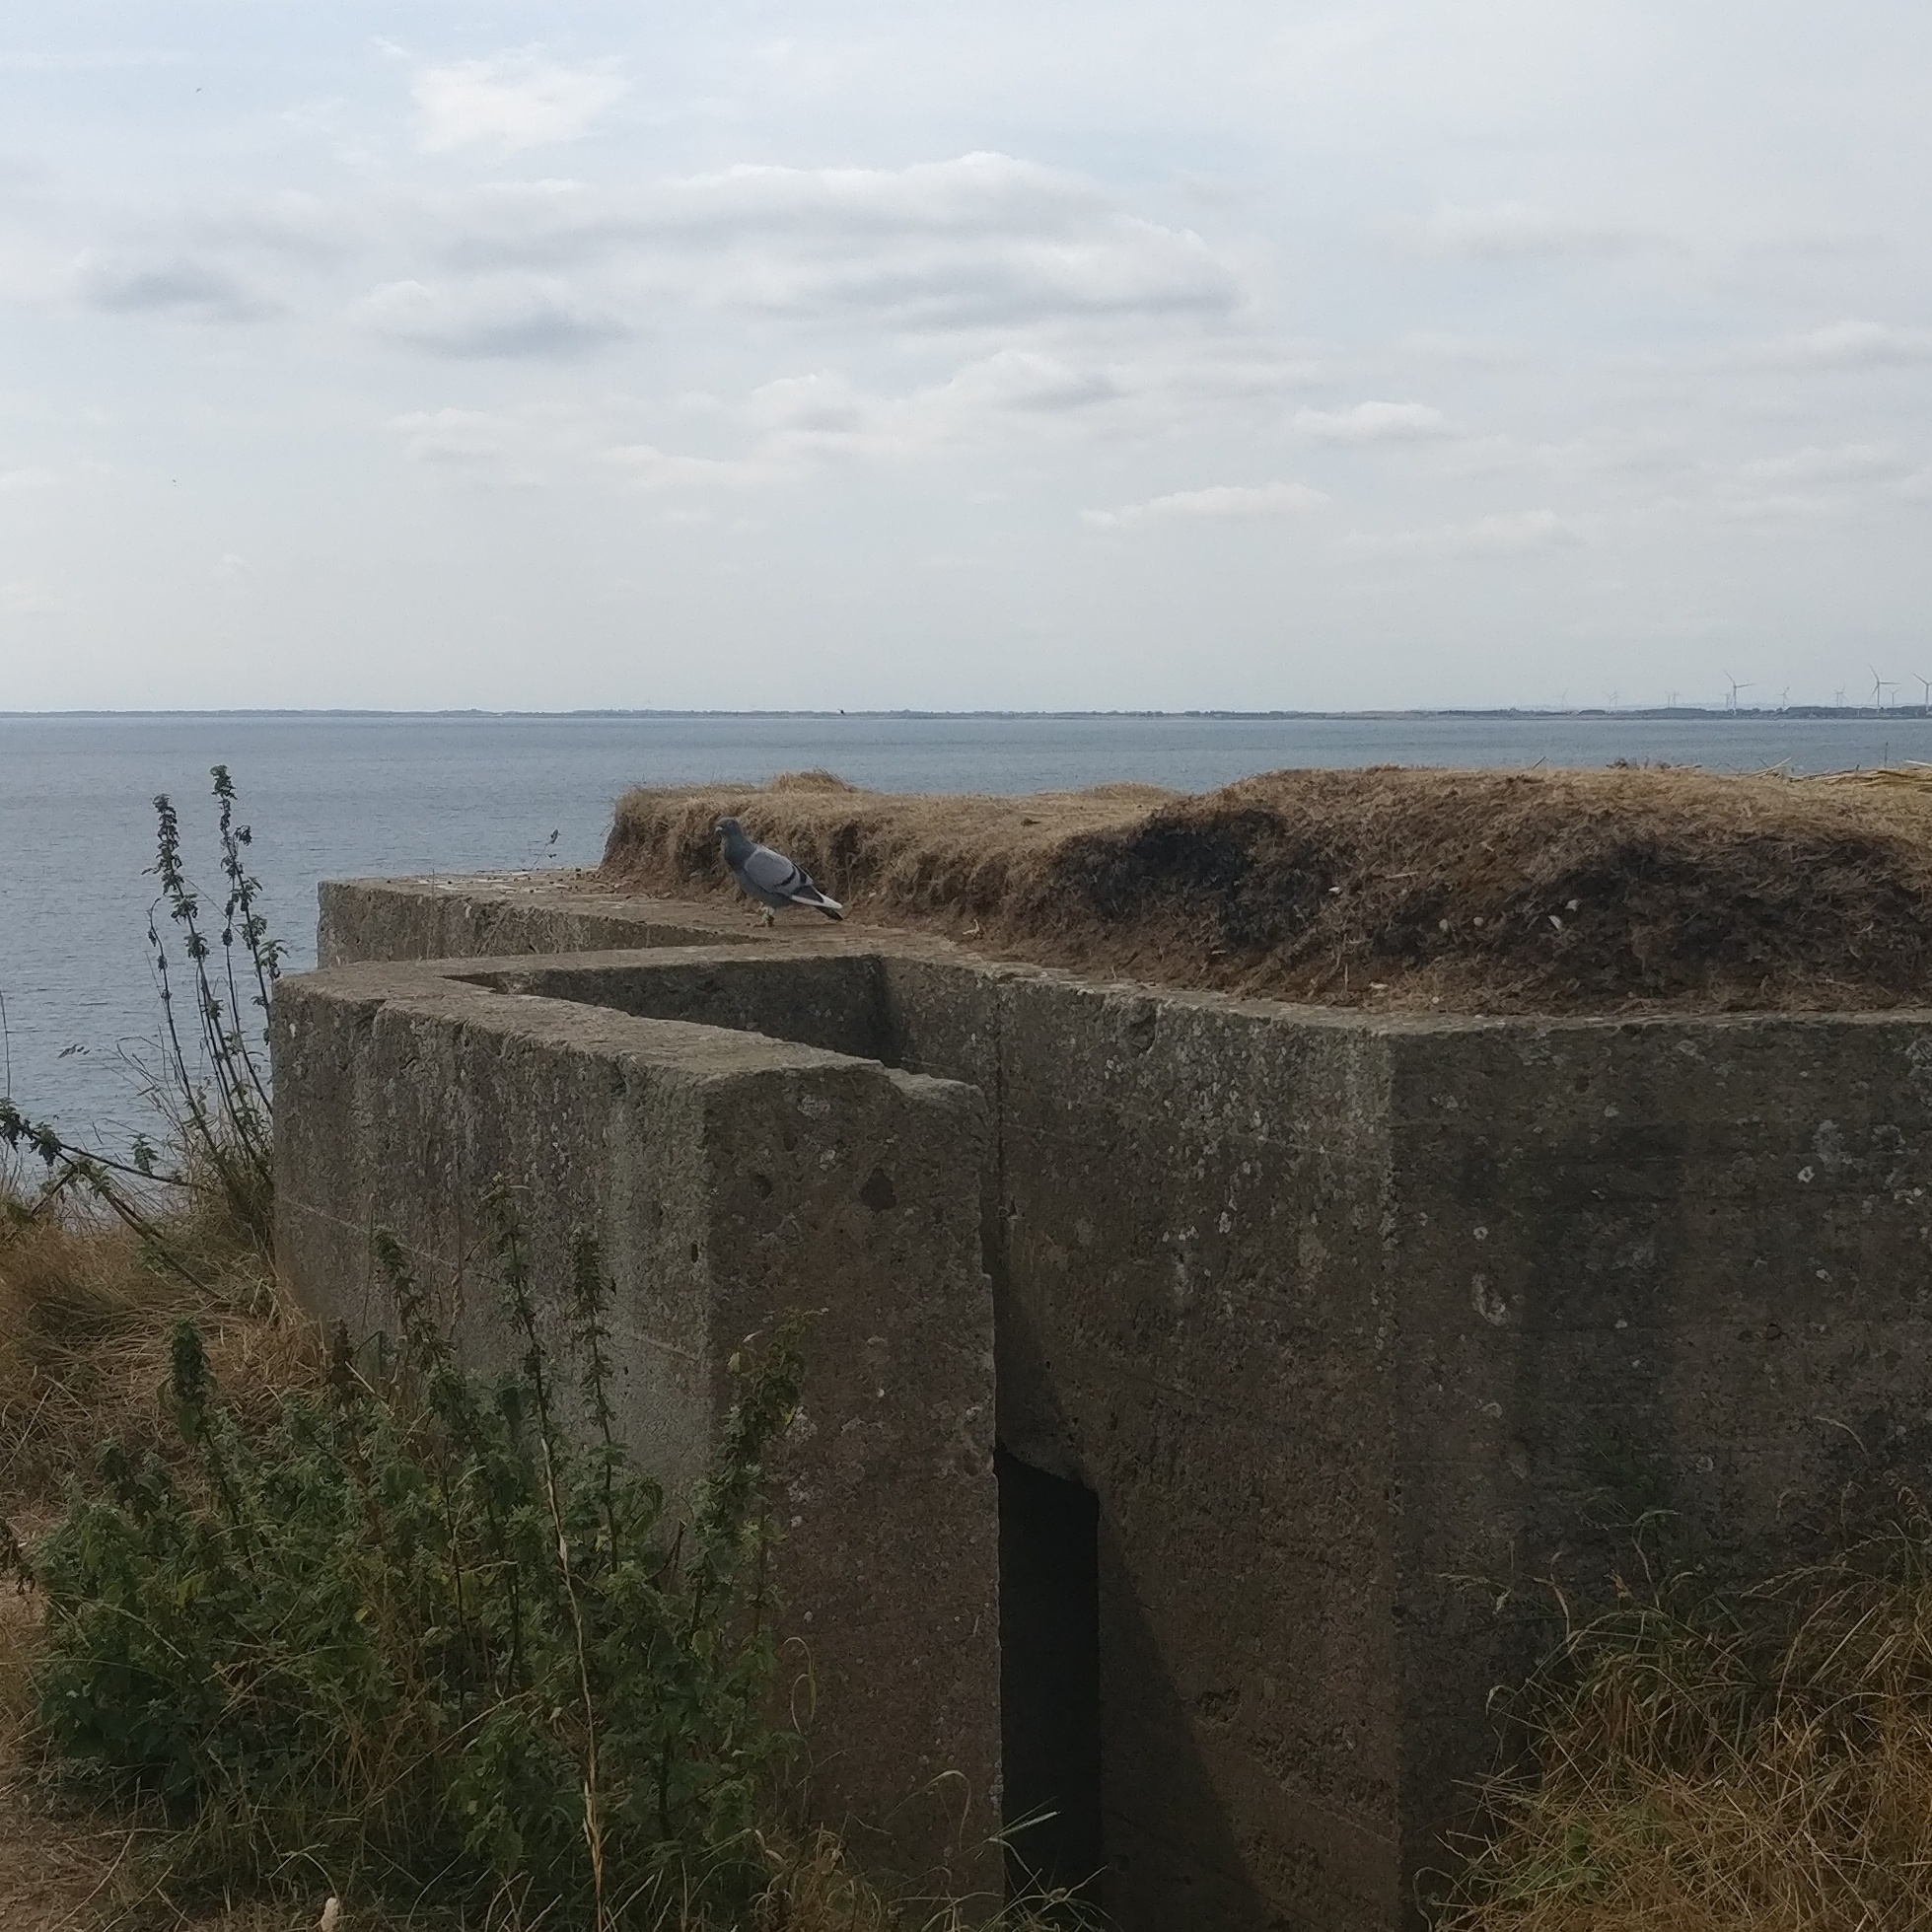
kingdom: Animalia
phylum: Chordata
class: Aves
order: Columbiformes
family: Columbidae
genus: Columba
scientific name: Columba livia
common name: Rock pigeon
